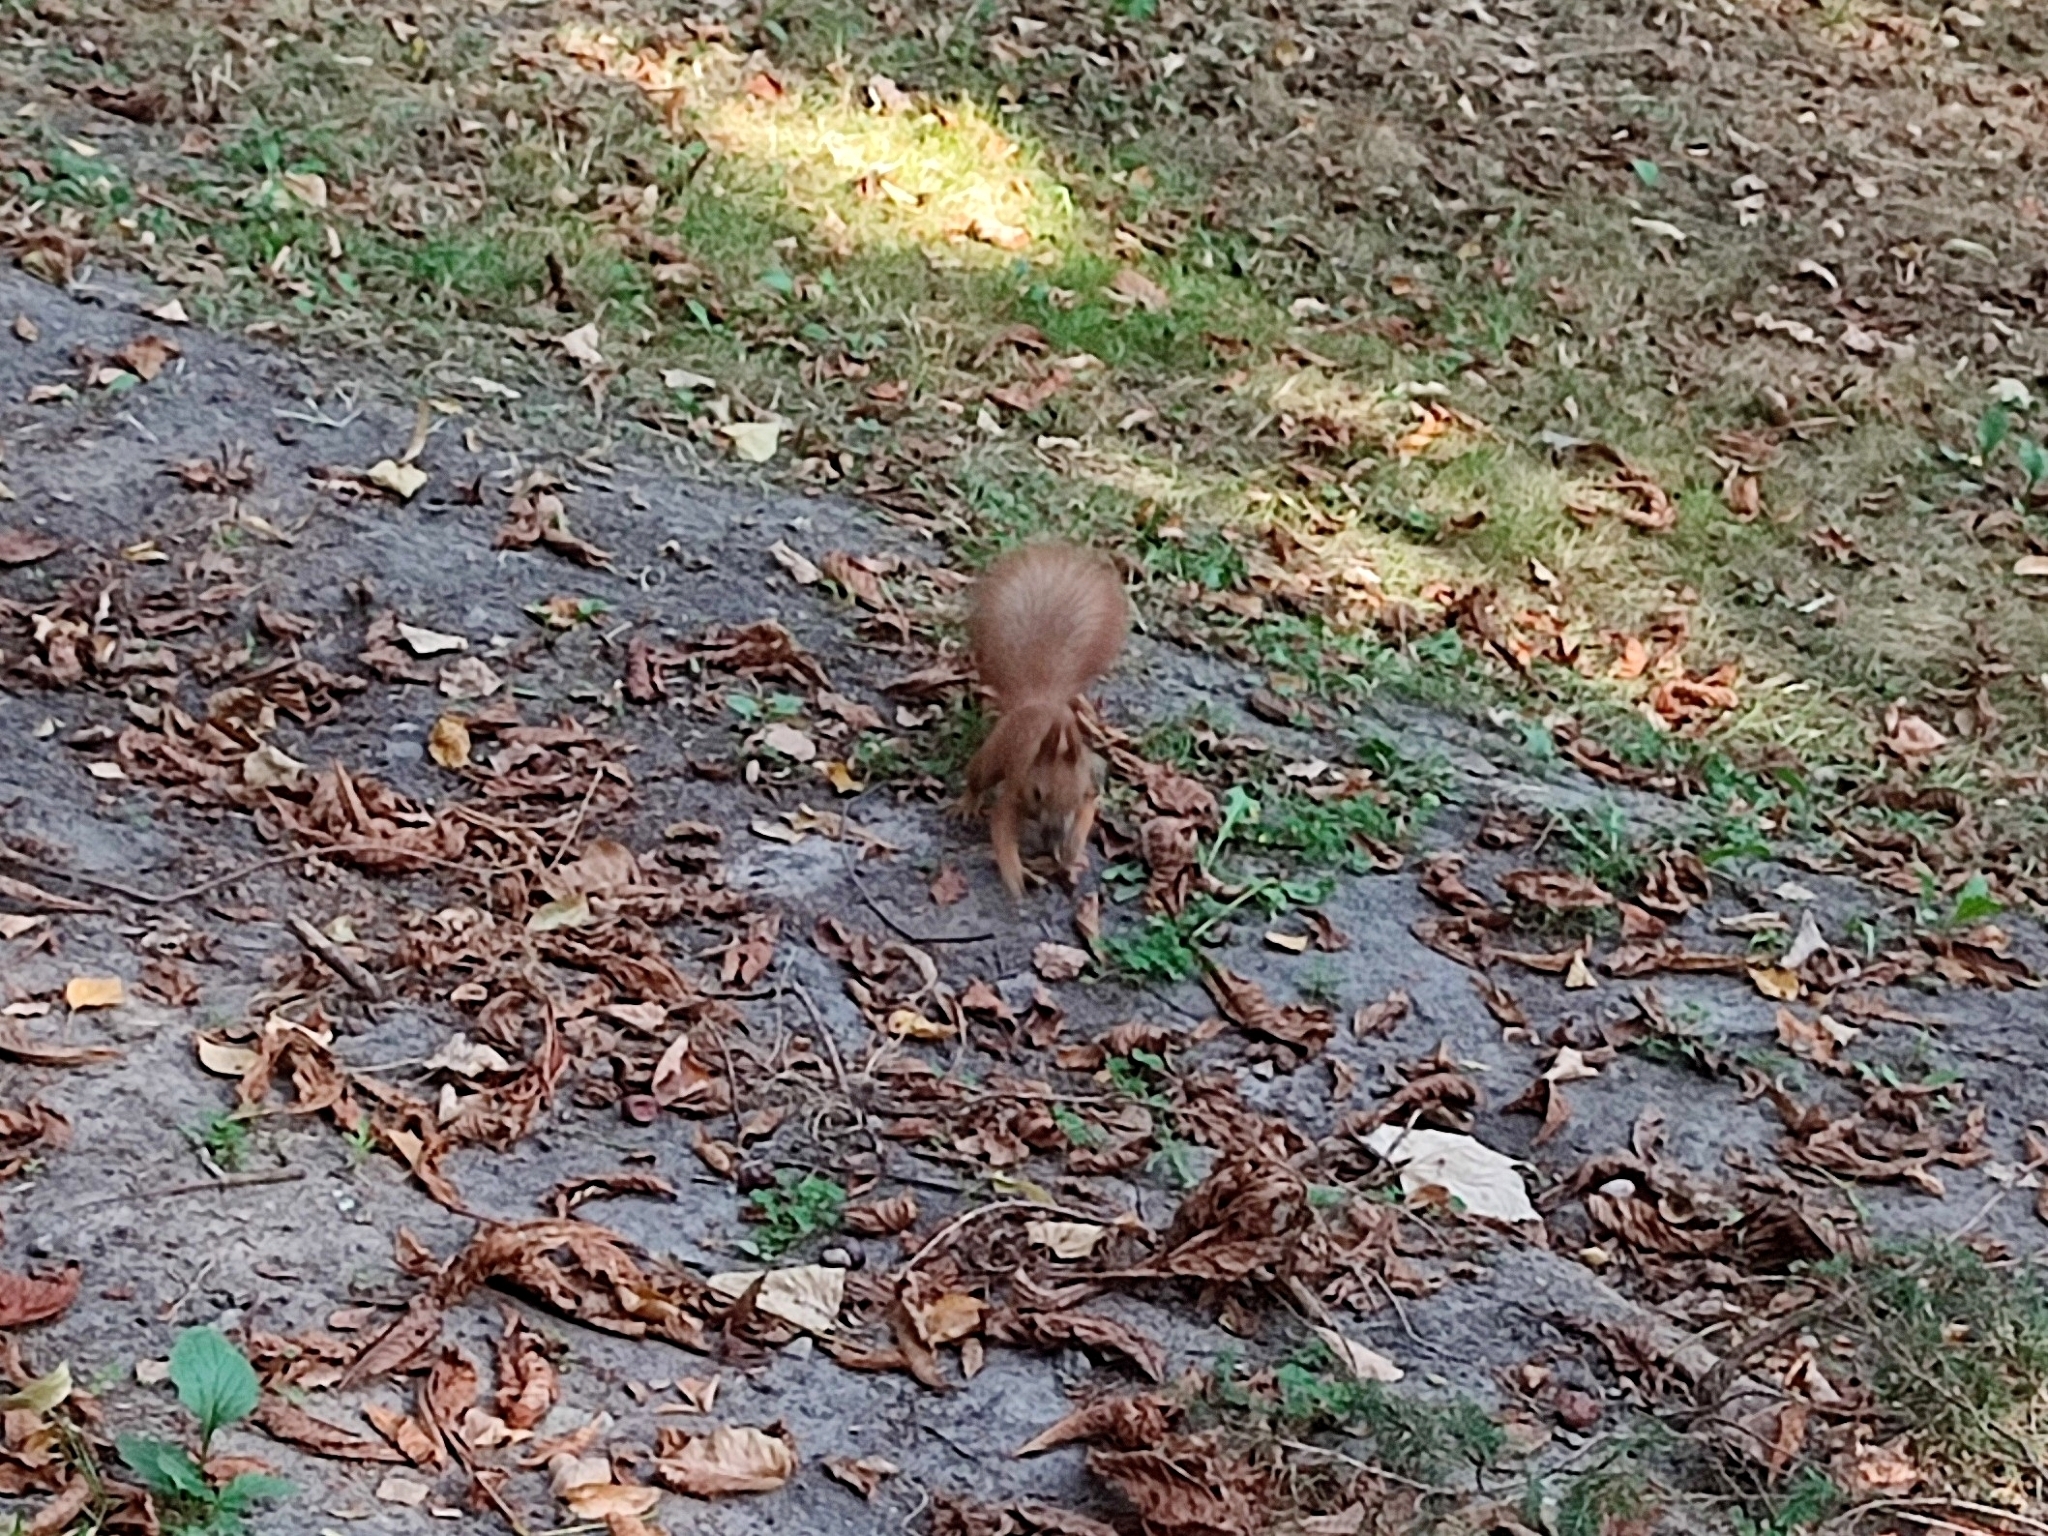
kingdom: Animalia
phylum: Chordata
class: Mammalia
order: Rodentia
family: Sciuridae
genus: Sciurus
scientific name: Sciurus vulgaris
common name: Eurasian red squirrel
